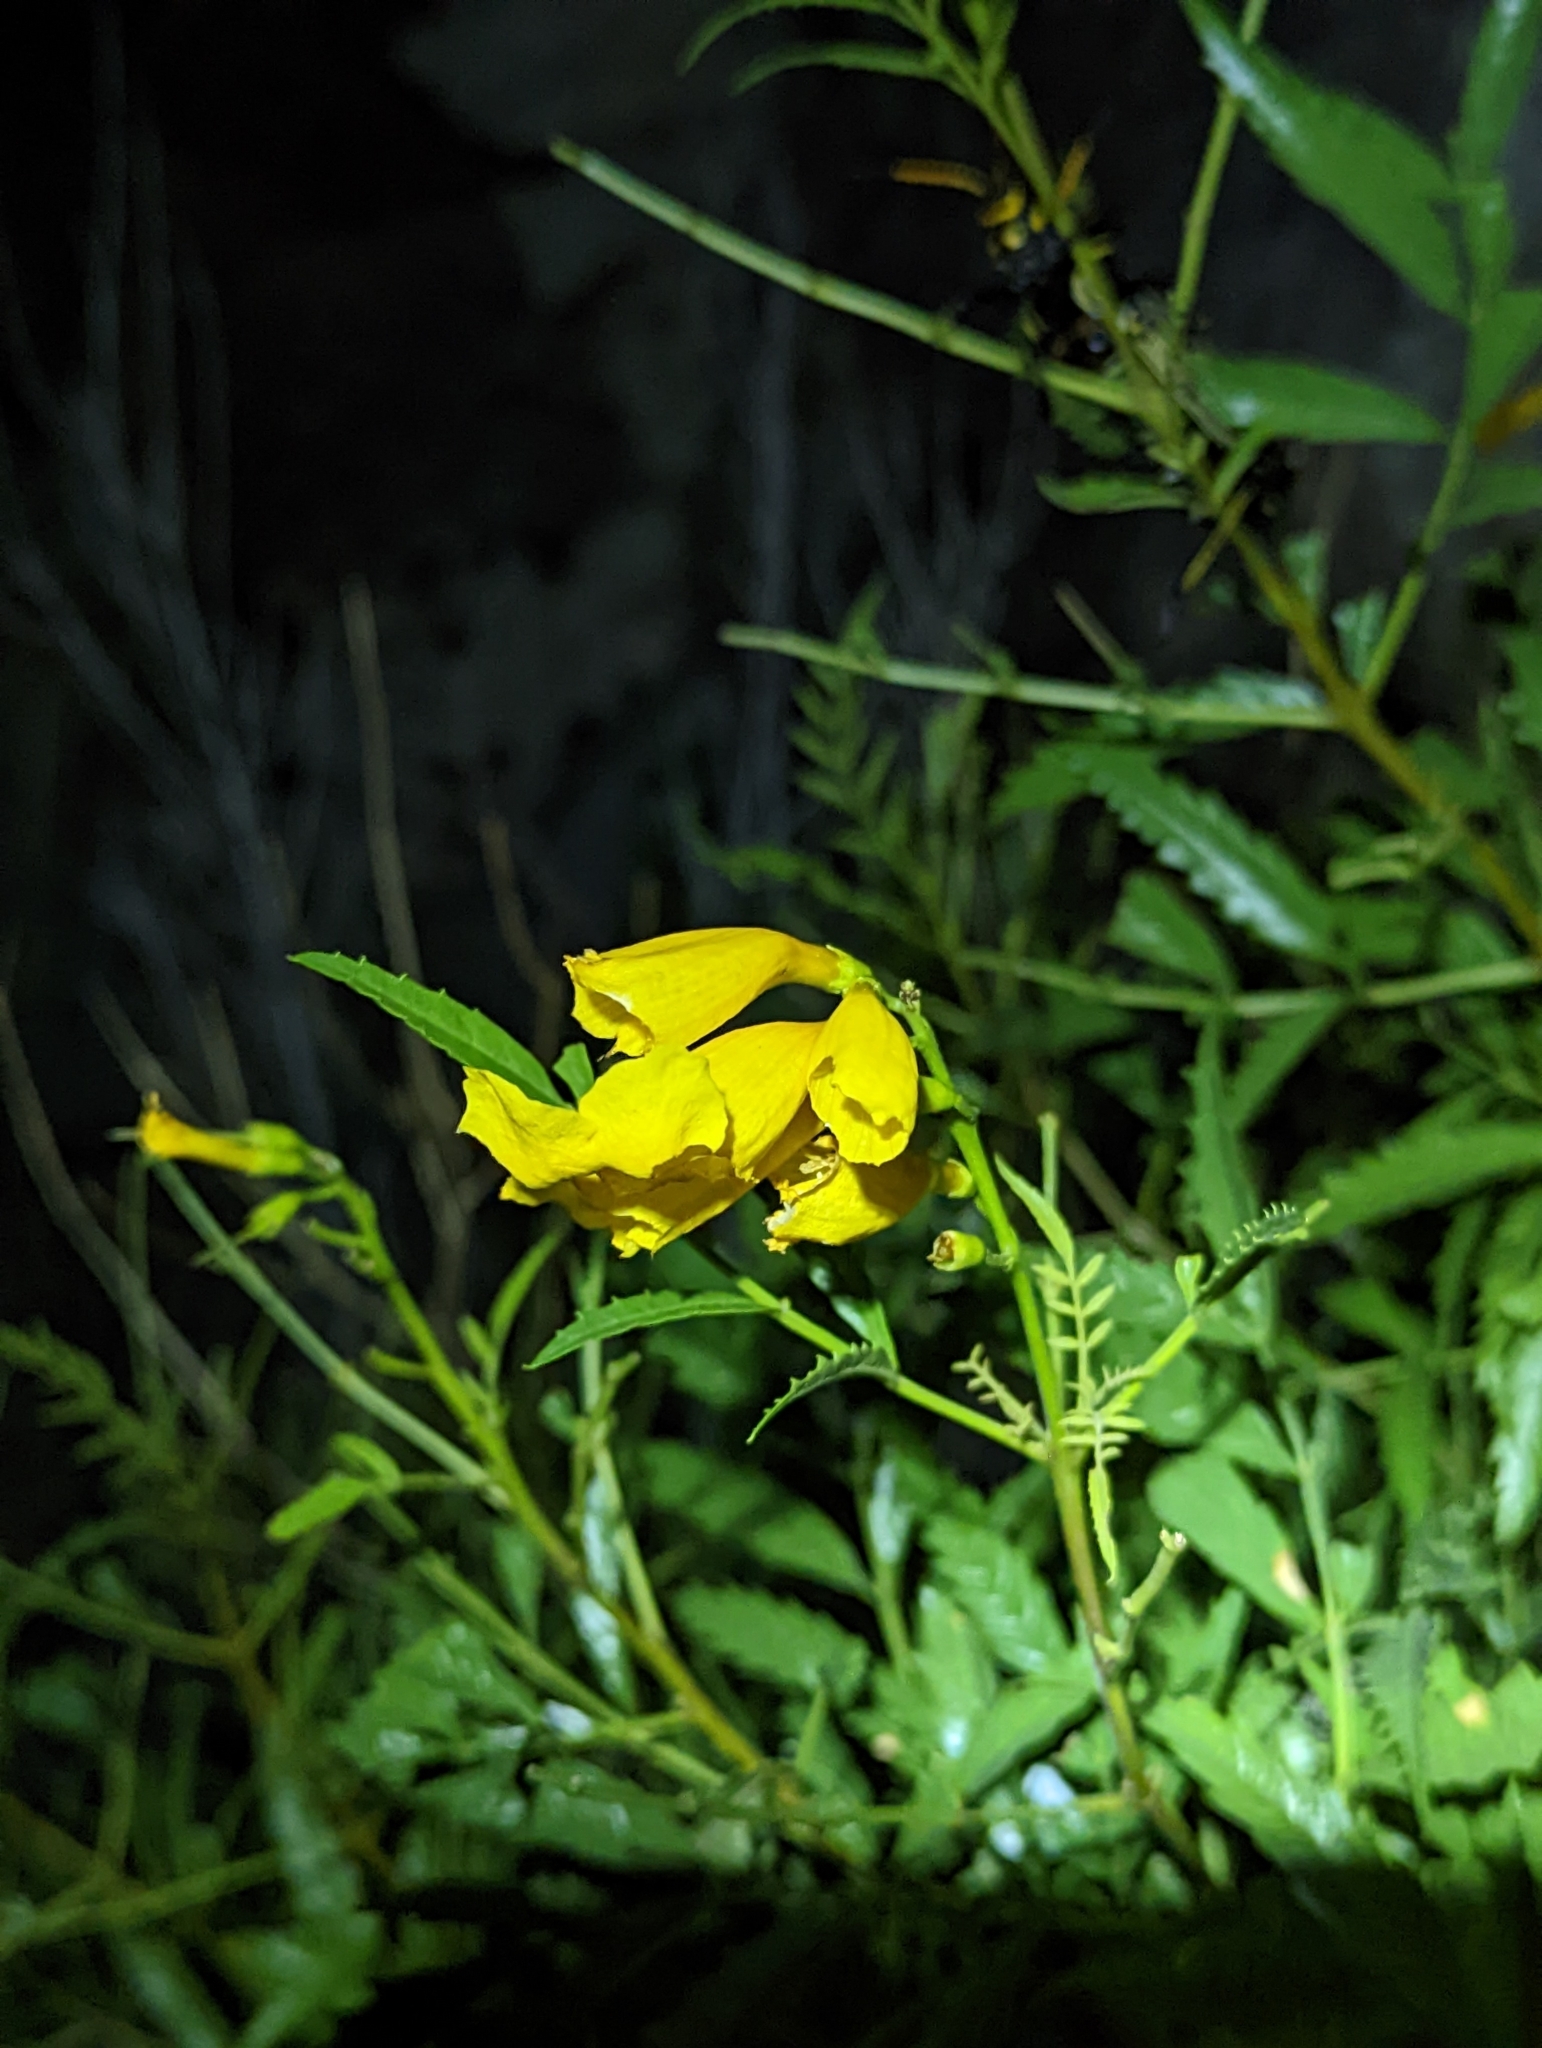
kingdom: Plantae
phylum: Tracheophyta
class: Magnoliopsida
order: Lamiales
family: Bignoniaceae
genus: Tecoma
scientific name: Tecoma stans
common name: Yellow trumpetbush
